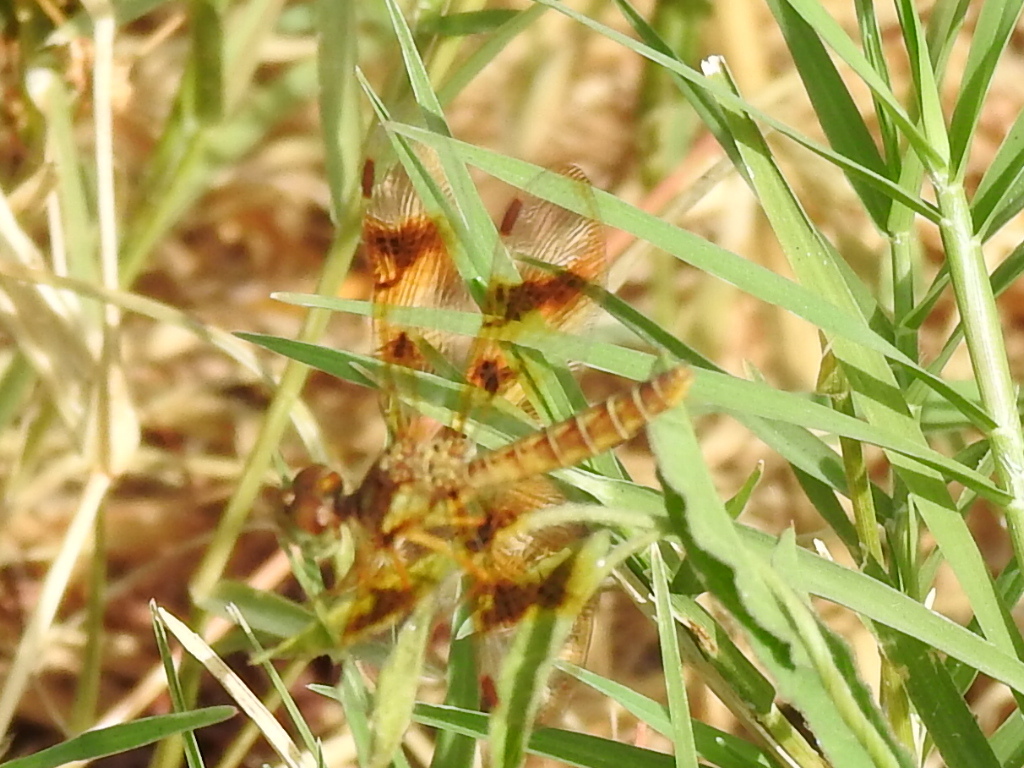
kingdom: Animalia
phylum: Arthropoda
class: Insecta
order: Odonata
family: Libellulidae
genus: Perithemis
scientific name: Perithemis tenera
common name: Eastern amberwing
